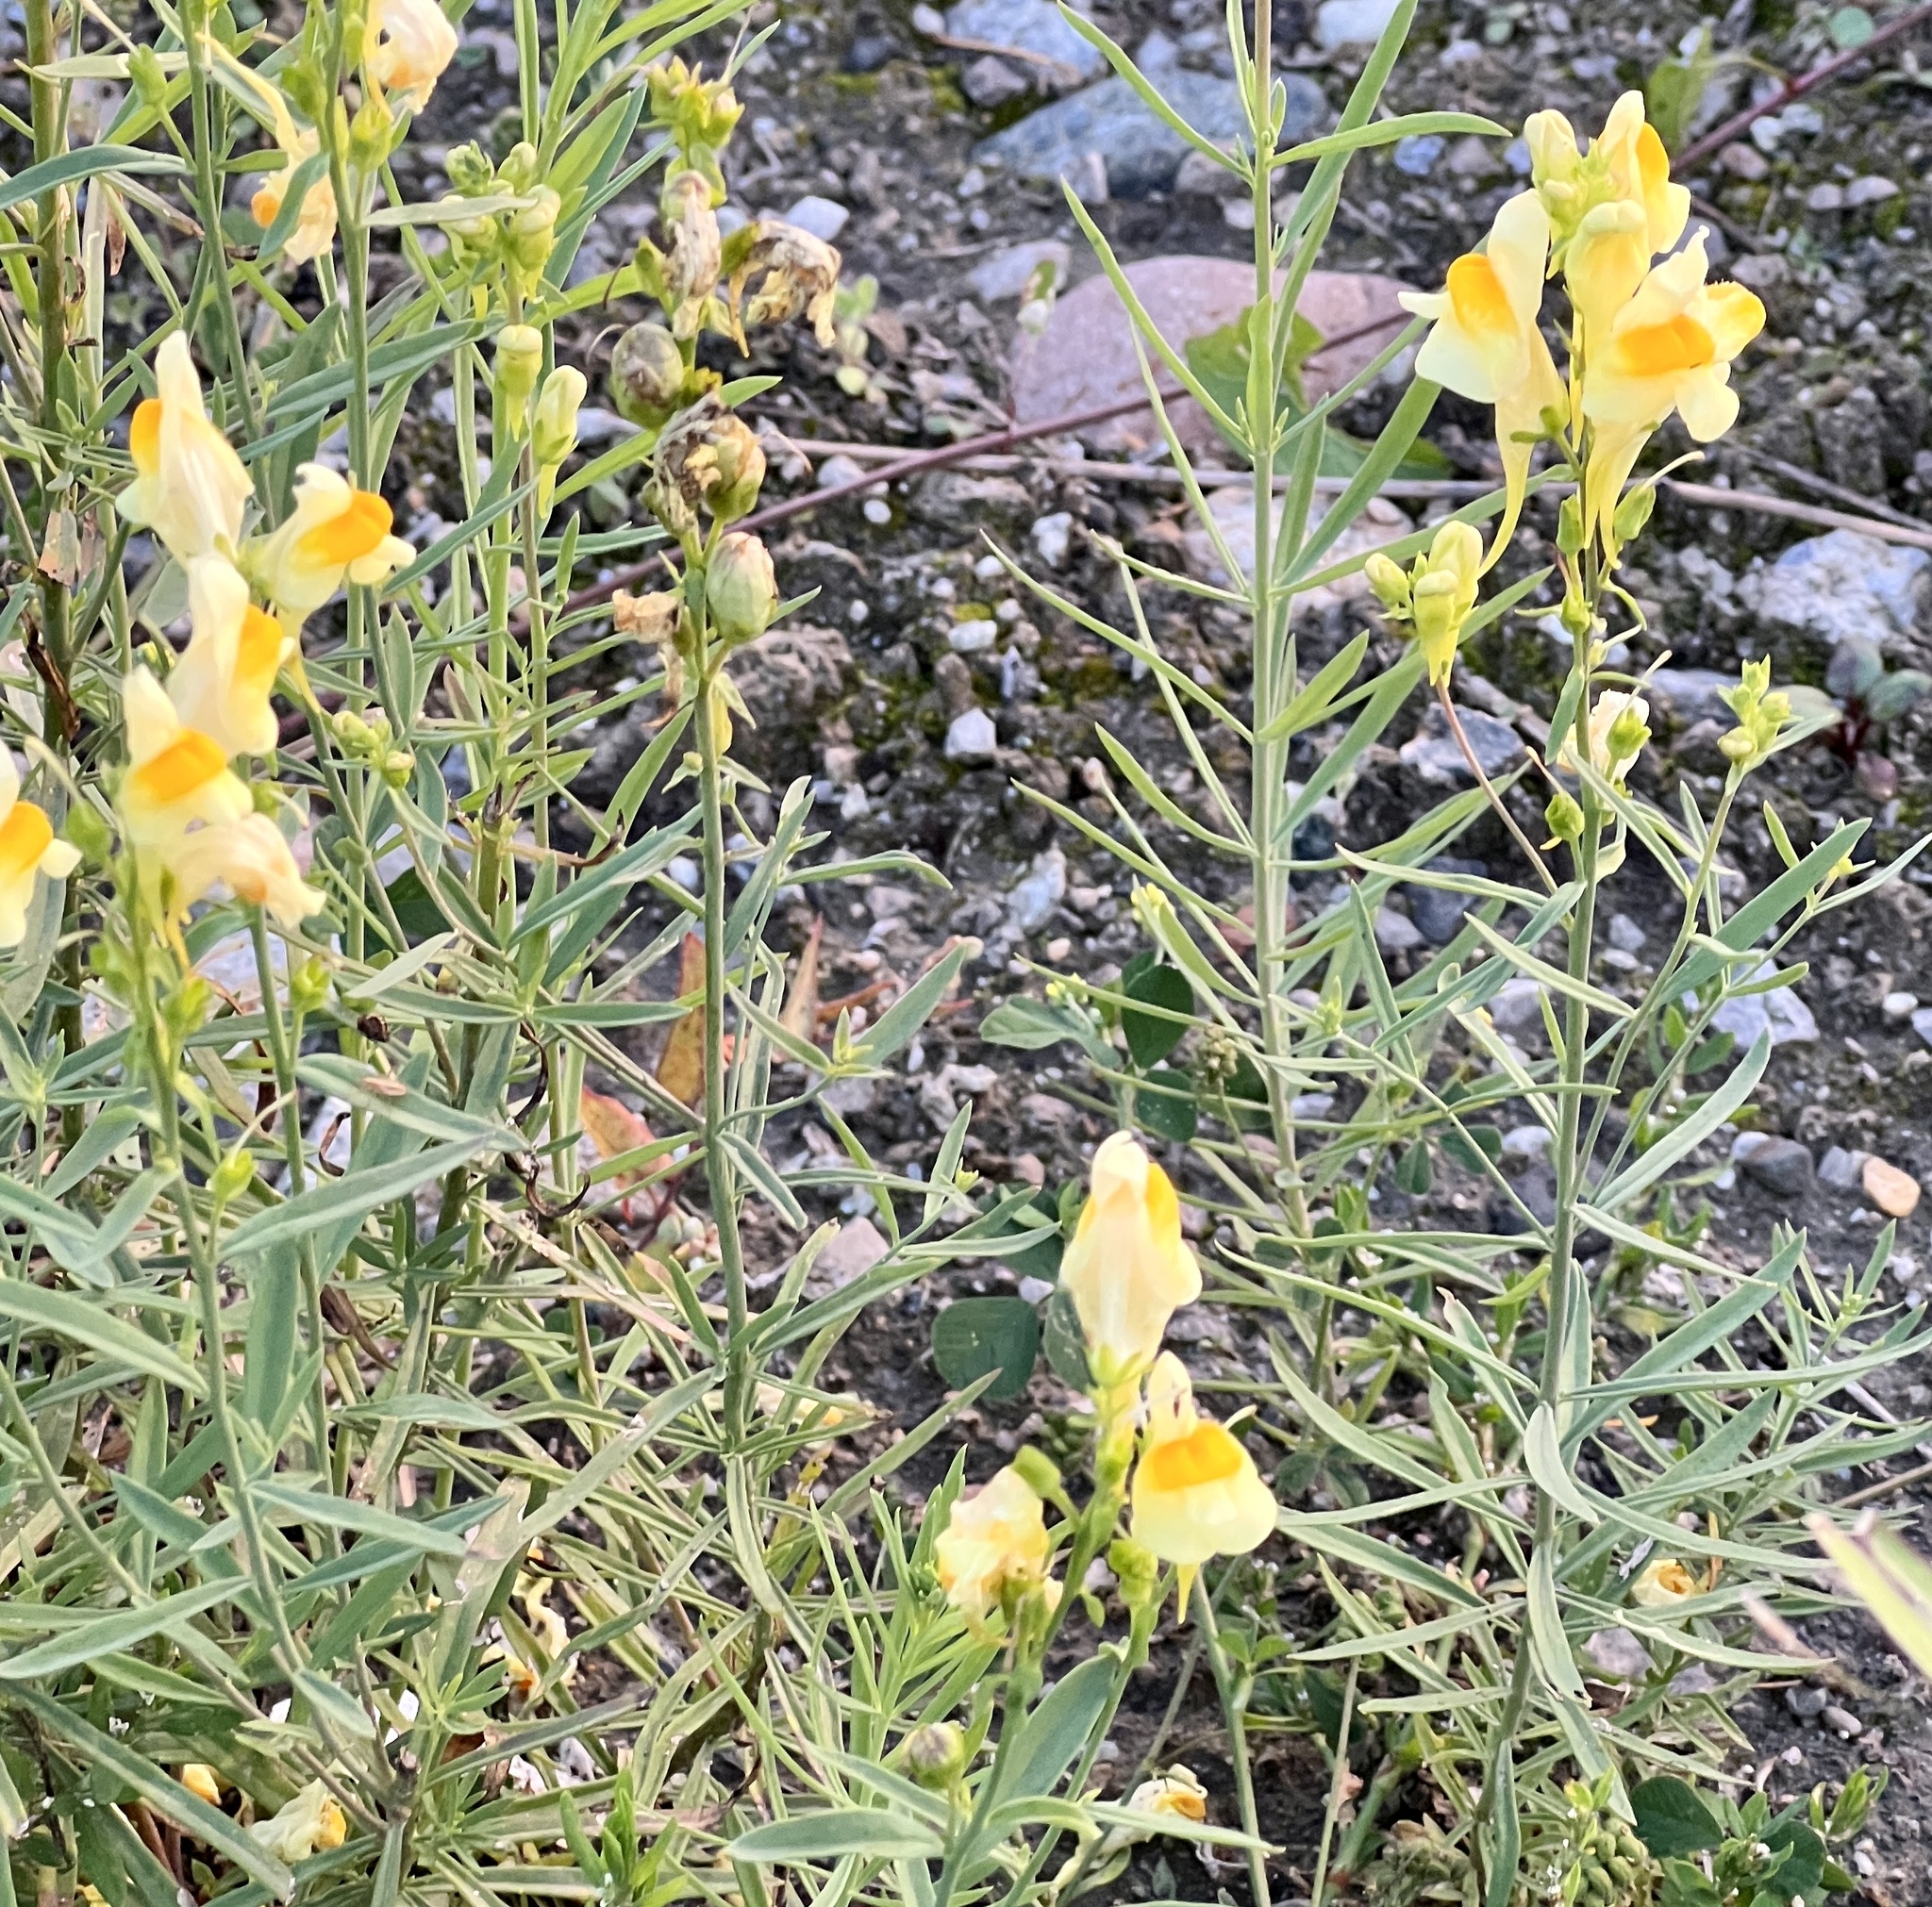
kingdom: Plantae
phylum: Tracheophyta
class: Magnoliopsida
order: Lamiales
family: Plantaginaceae
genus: Linaria
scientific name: Linaria vulgaris
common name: Butter and eggs
